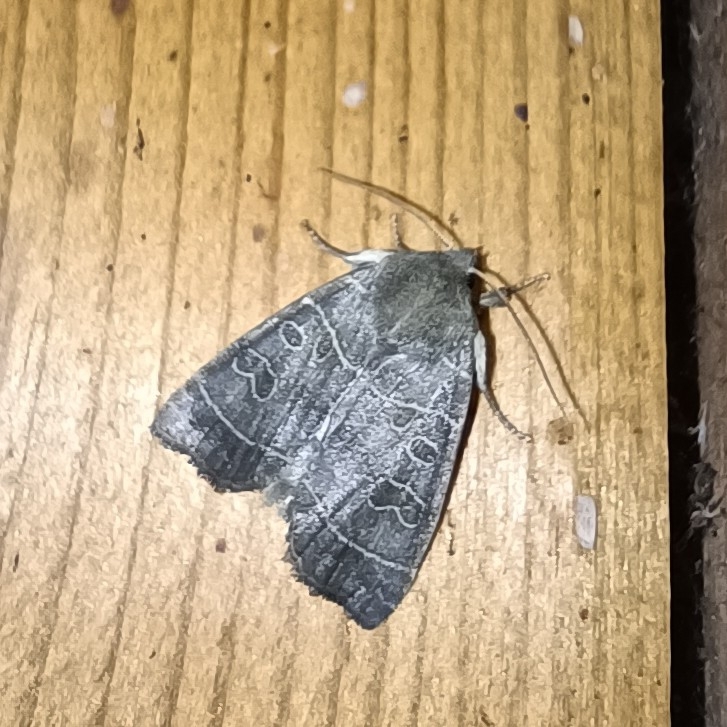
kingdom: Animalia
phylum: Arthropoda
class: Insecta
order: Lepidoptera
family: Noctuidae
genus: Ipimorpha
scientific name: Ipimorpha subtusa
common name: Olive
